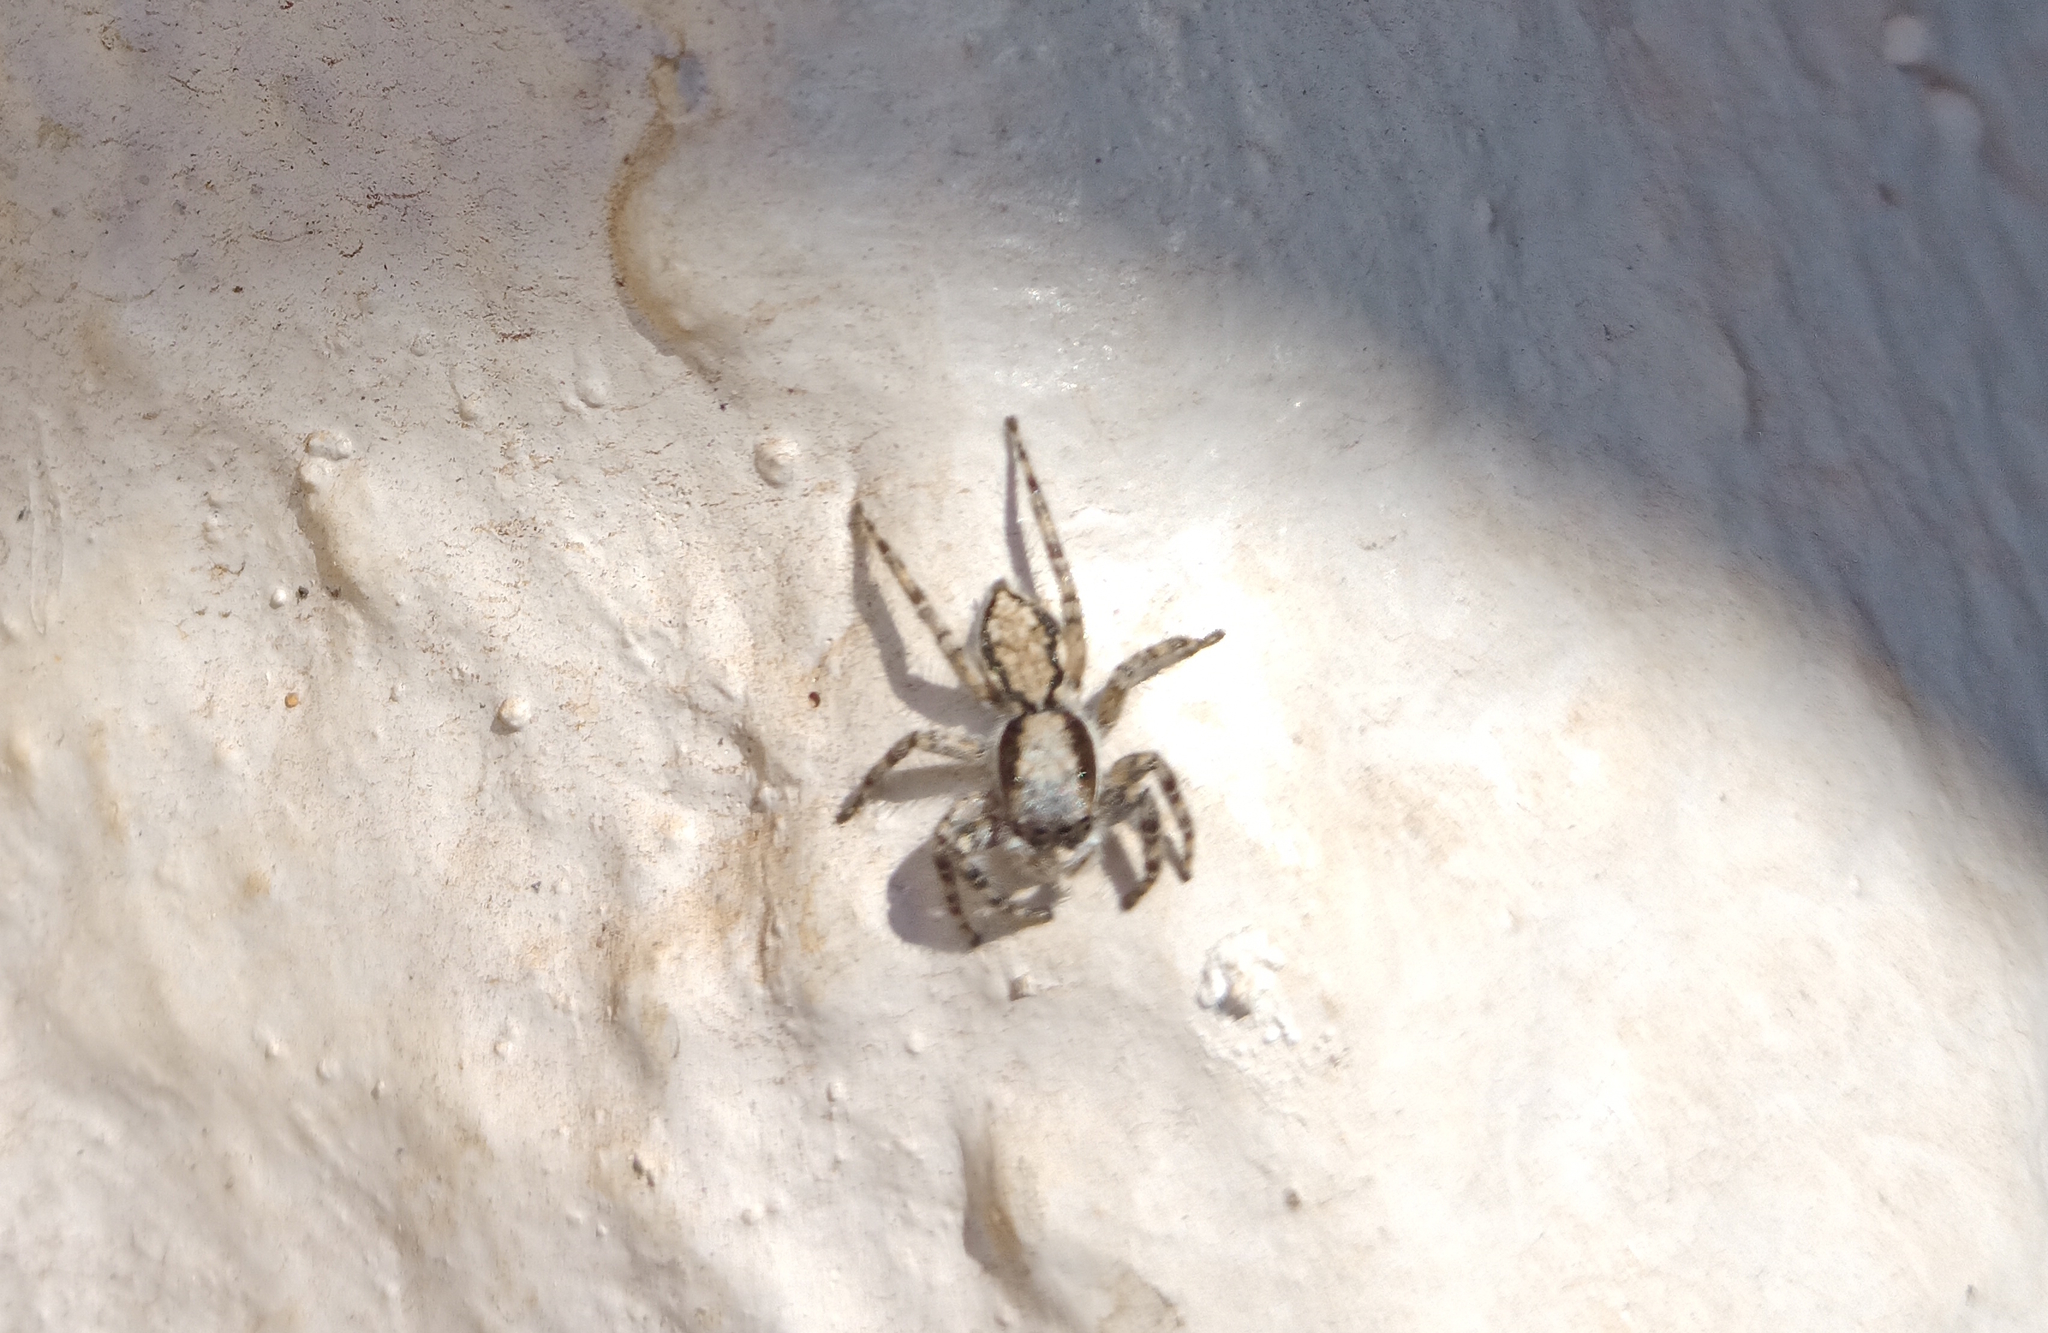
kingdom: Animalia
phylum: Arthropoda
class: Arachnida
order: Araneae
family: Salticidae
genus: Menemerus
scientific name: Menemerus bivittatus
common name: Gray wall jumper
